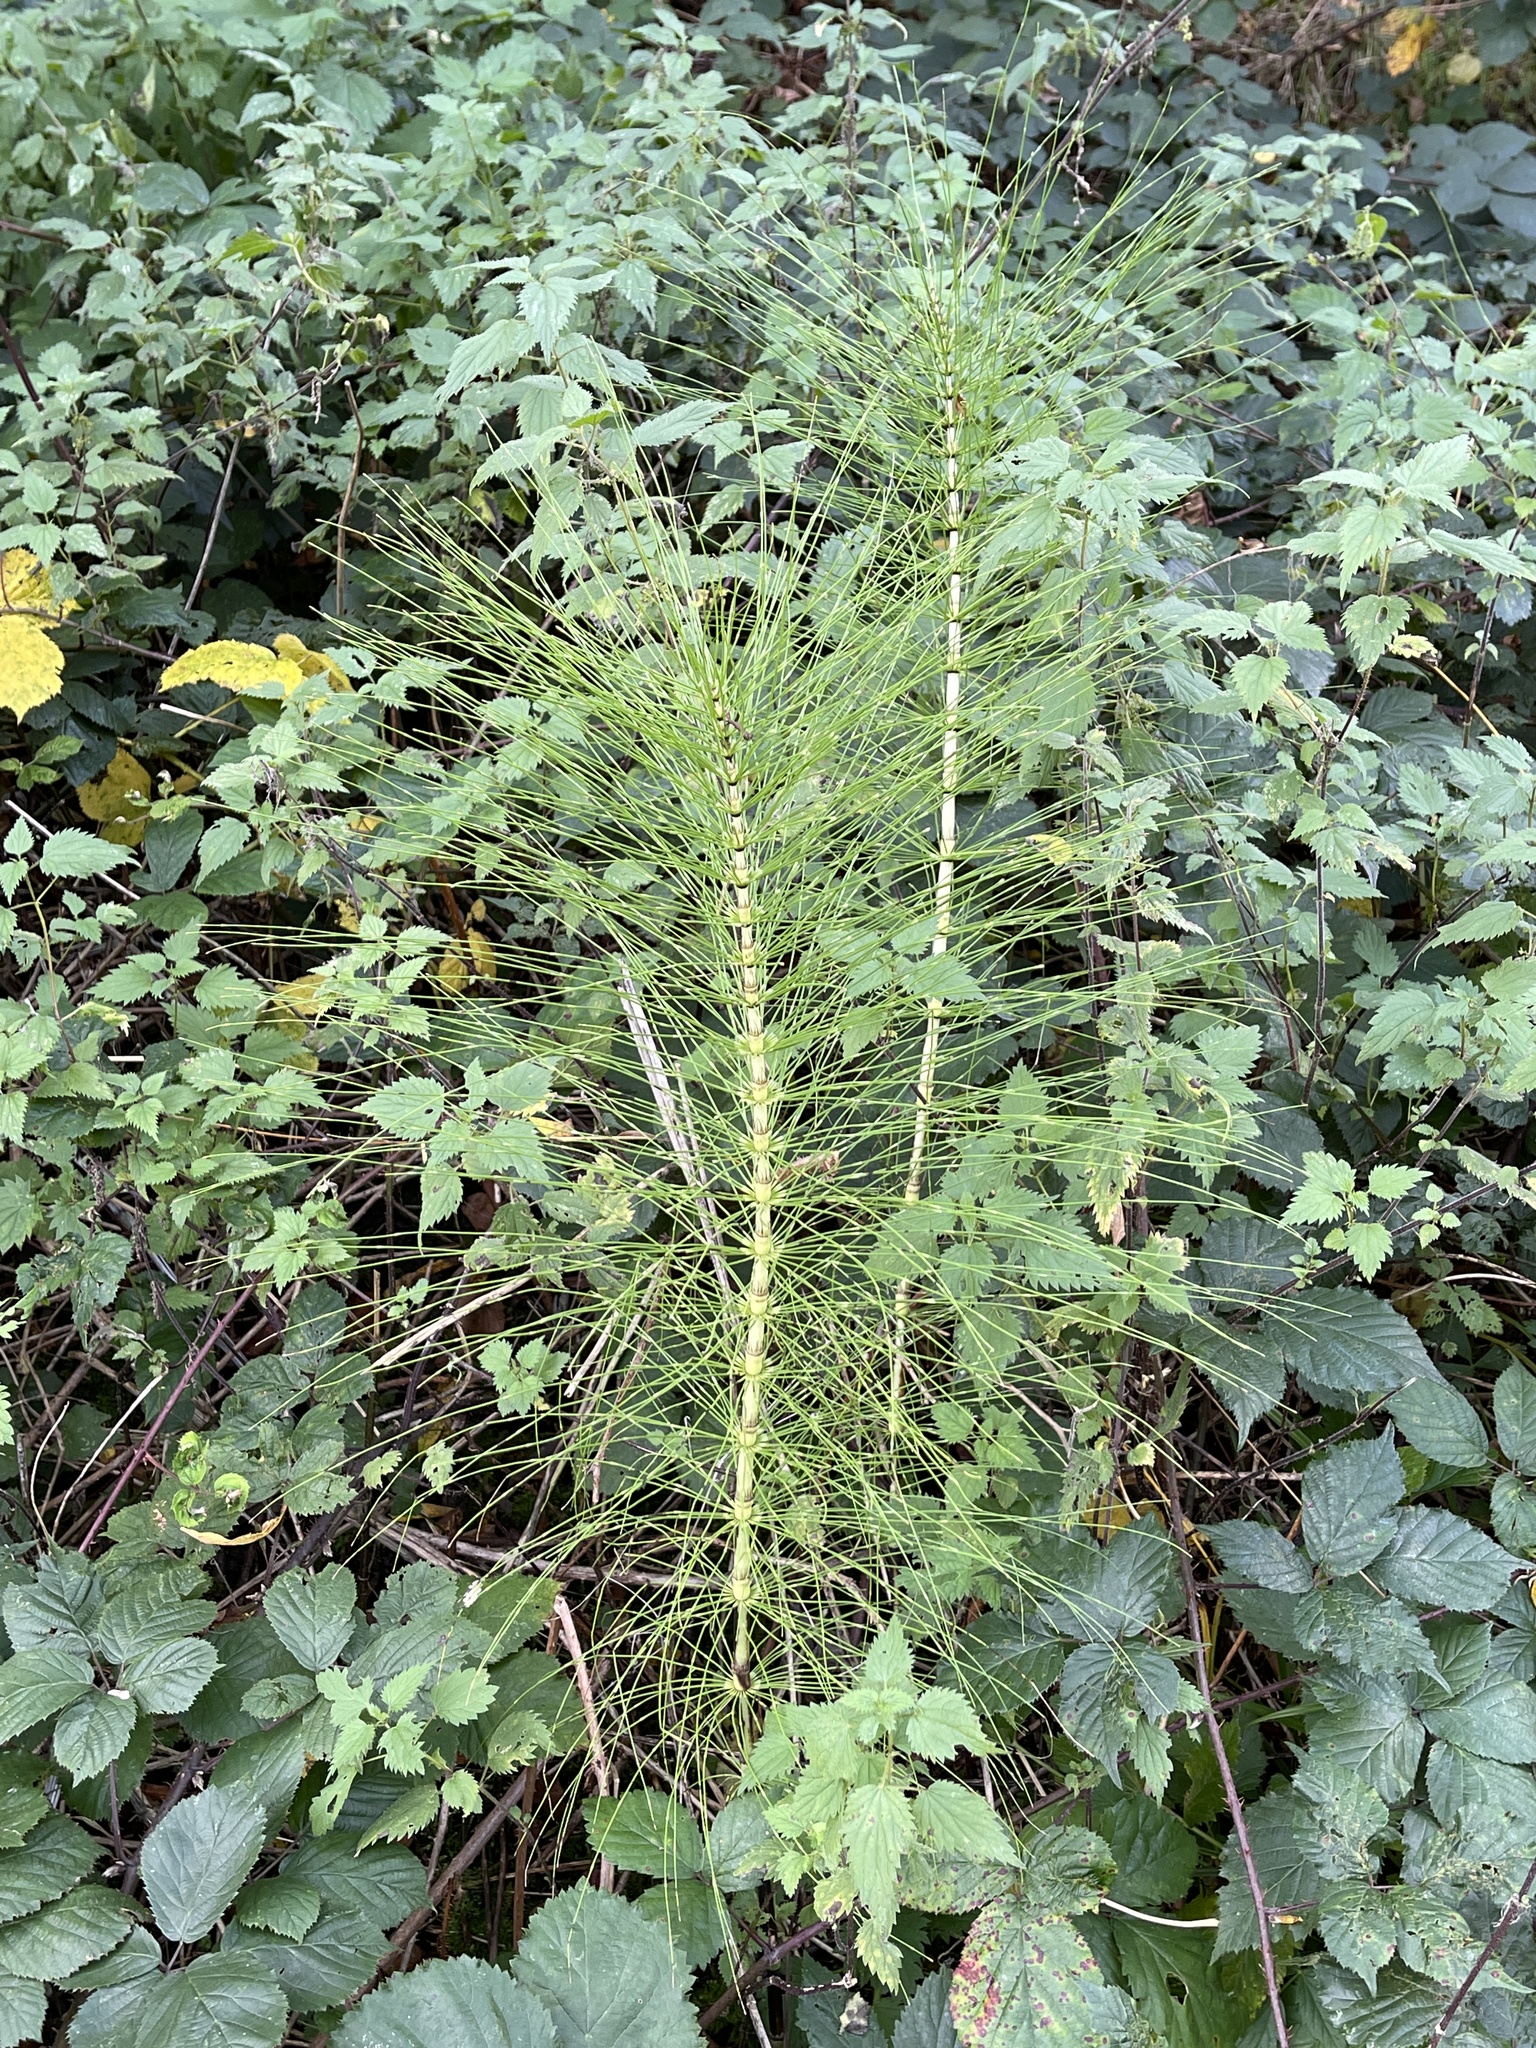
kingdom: Plantae
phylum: Tracheophyta
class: Polypodiopsida
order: Equisetales
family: Equisetaceae
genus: Equisetum
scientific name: Equisetum telmateia
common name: Great horsetail
